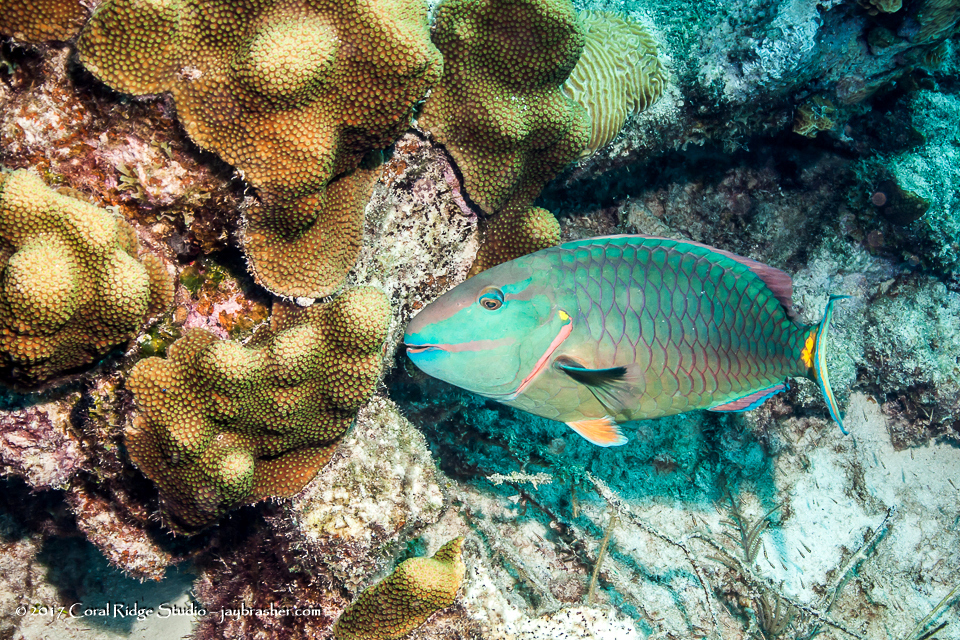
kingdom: Animalia
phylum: Chordata
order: Perciformes
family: Scaridae
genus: Sparisoma
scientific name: Sparisoma viride
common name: Stoplight parrotfish
